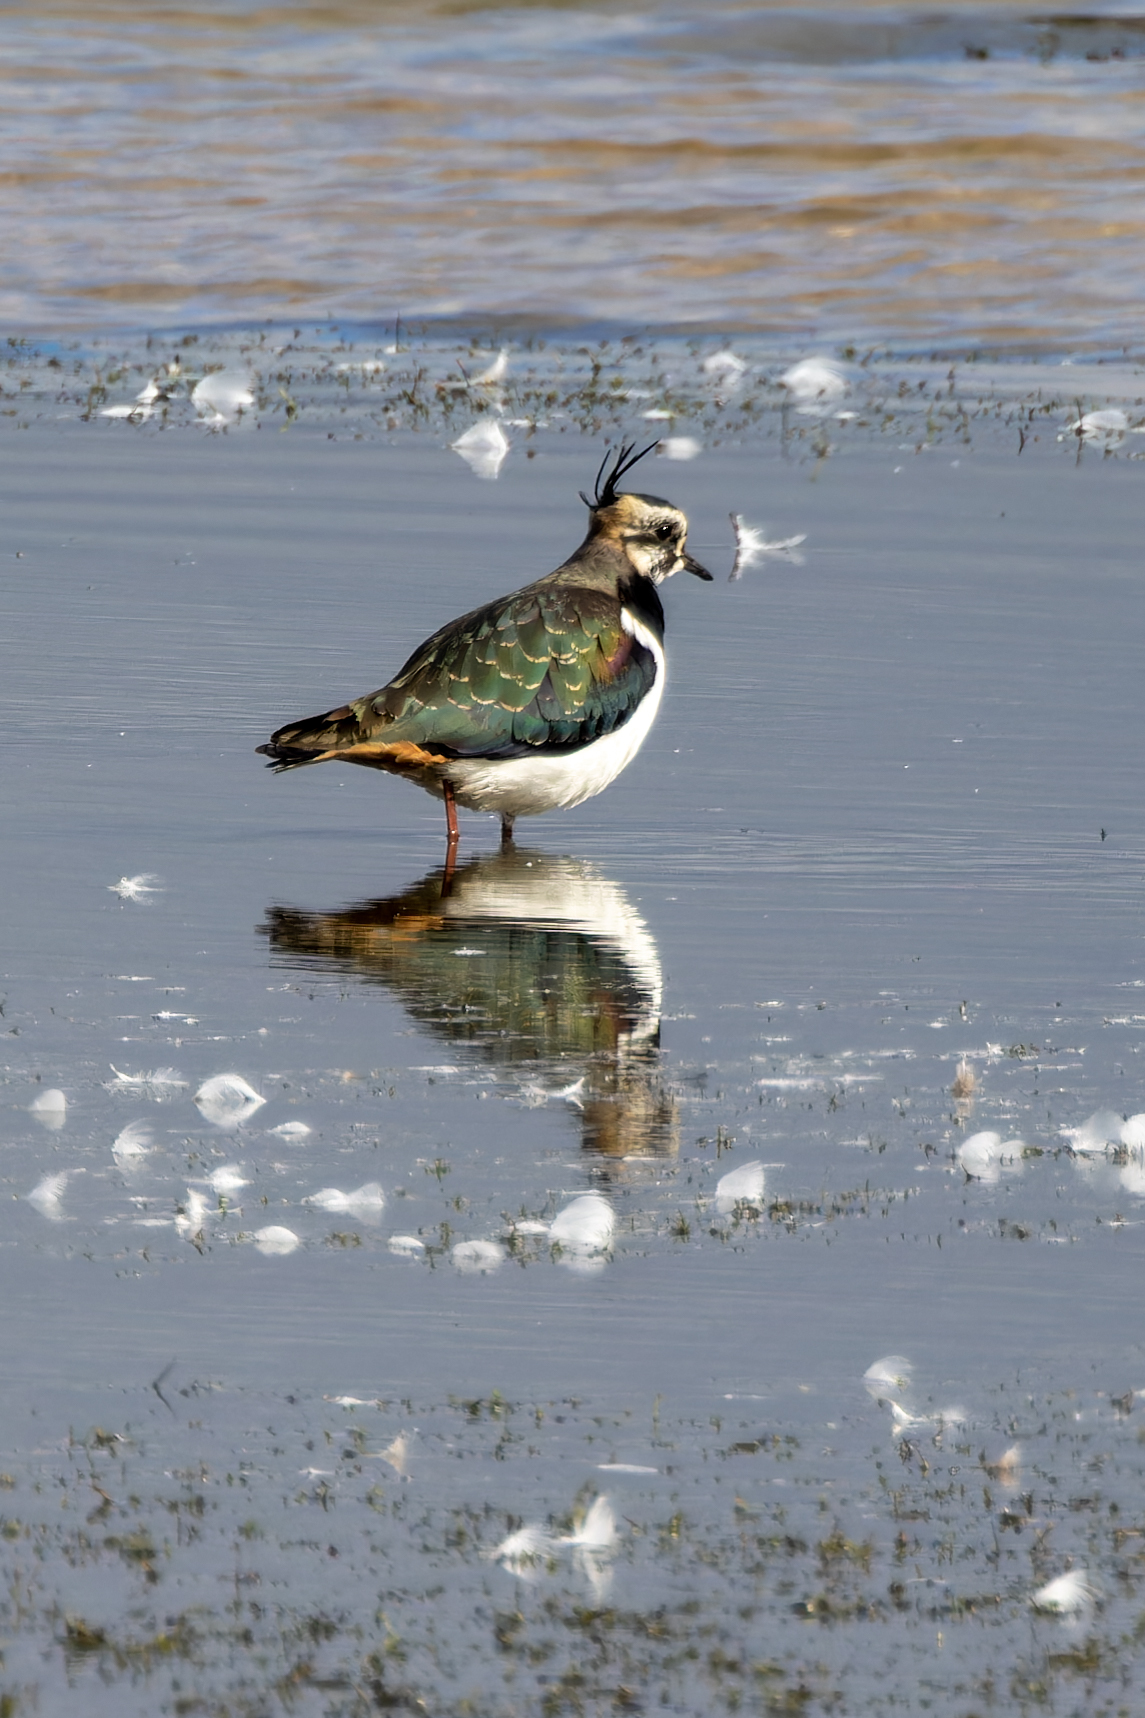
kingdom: Animalia
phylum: Chordata
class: Aves
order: Charadriiformes
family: Charadriidae
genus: Vanellus
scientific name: Vanellus vanellus
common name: Northern lapwing
